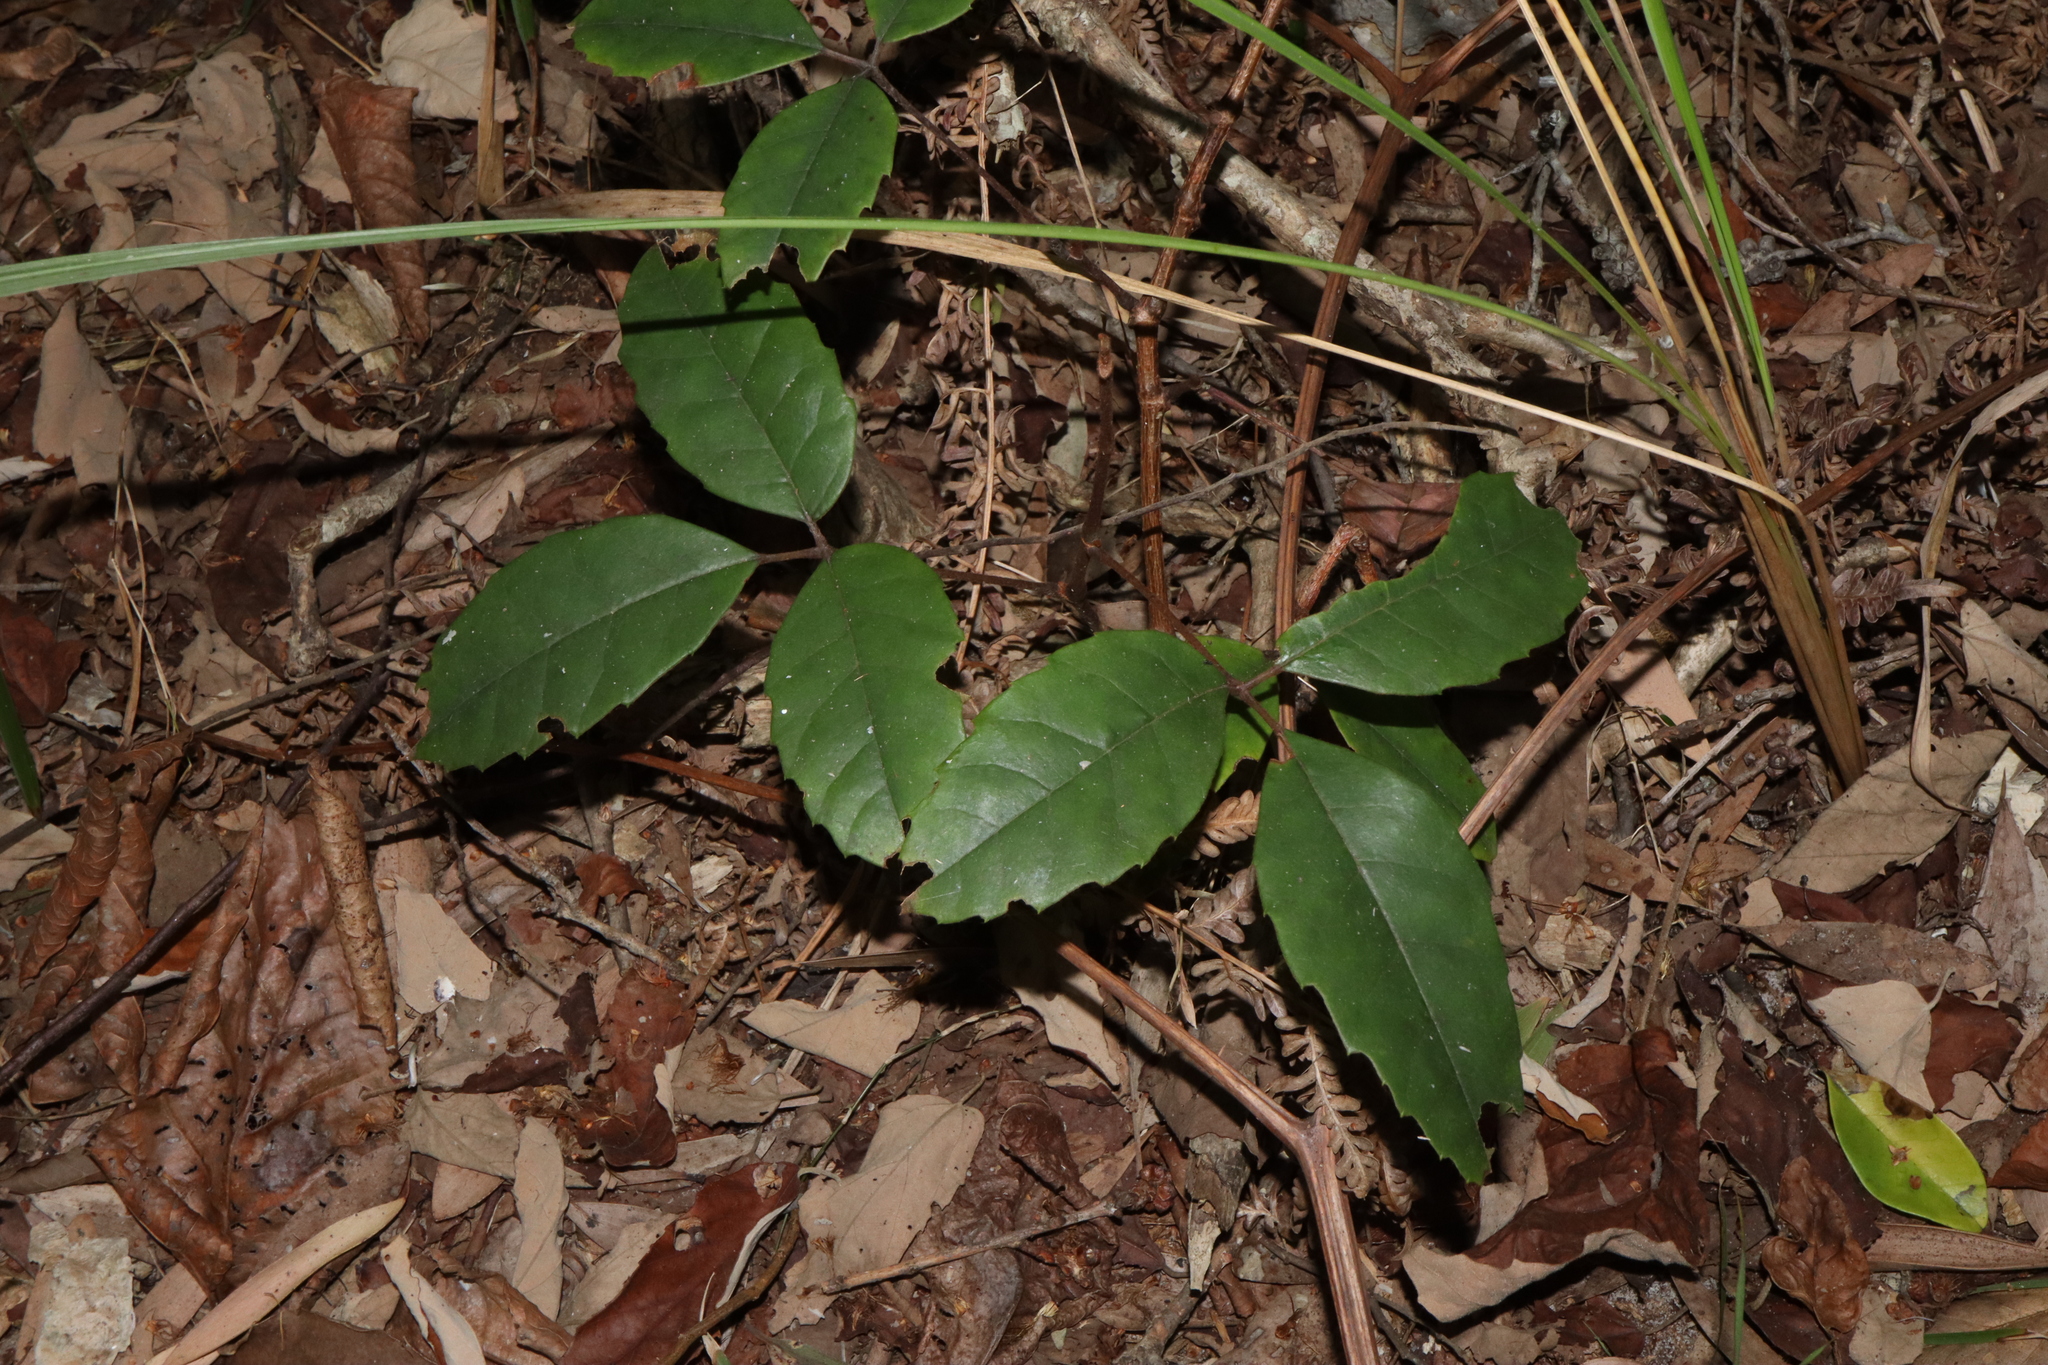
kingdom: Plantae
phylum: Tracheophyta
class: Magnoliopsida
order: Vitales
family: Vitaceae
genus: Nothocissus
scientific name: Nothocissus hypoglauca
